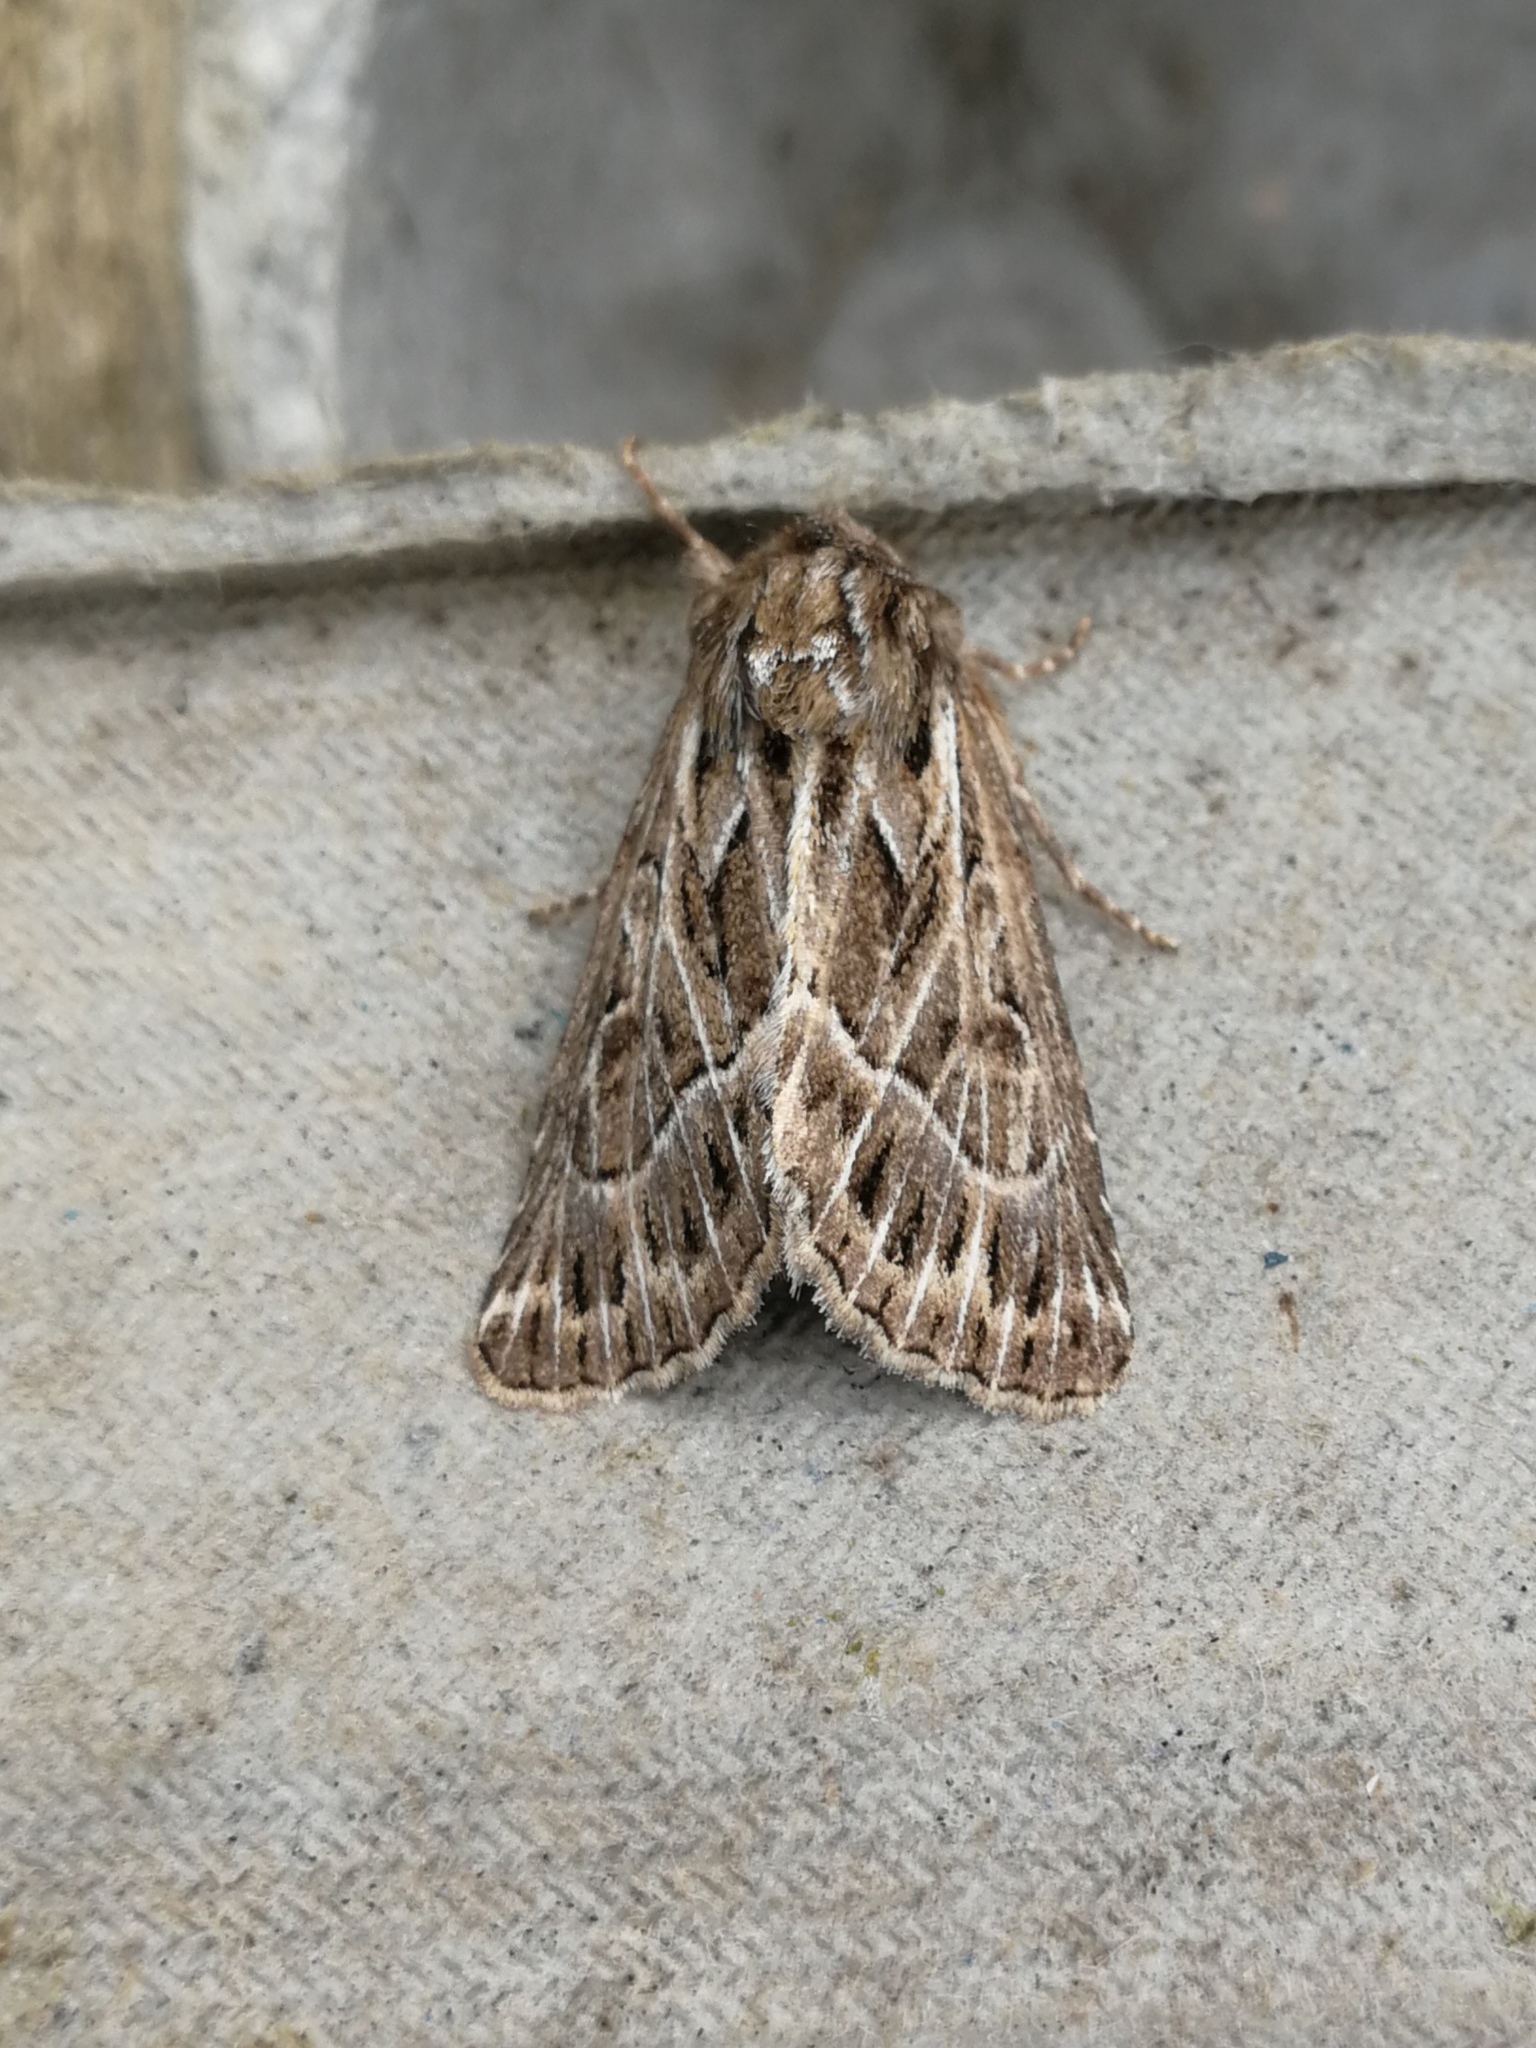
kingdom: Animalia
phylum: Arthropoda
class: Insecta
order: Lepidoptera
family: Noctuidae
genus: Thalpophila
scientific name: Thalpophila vitalba
